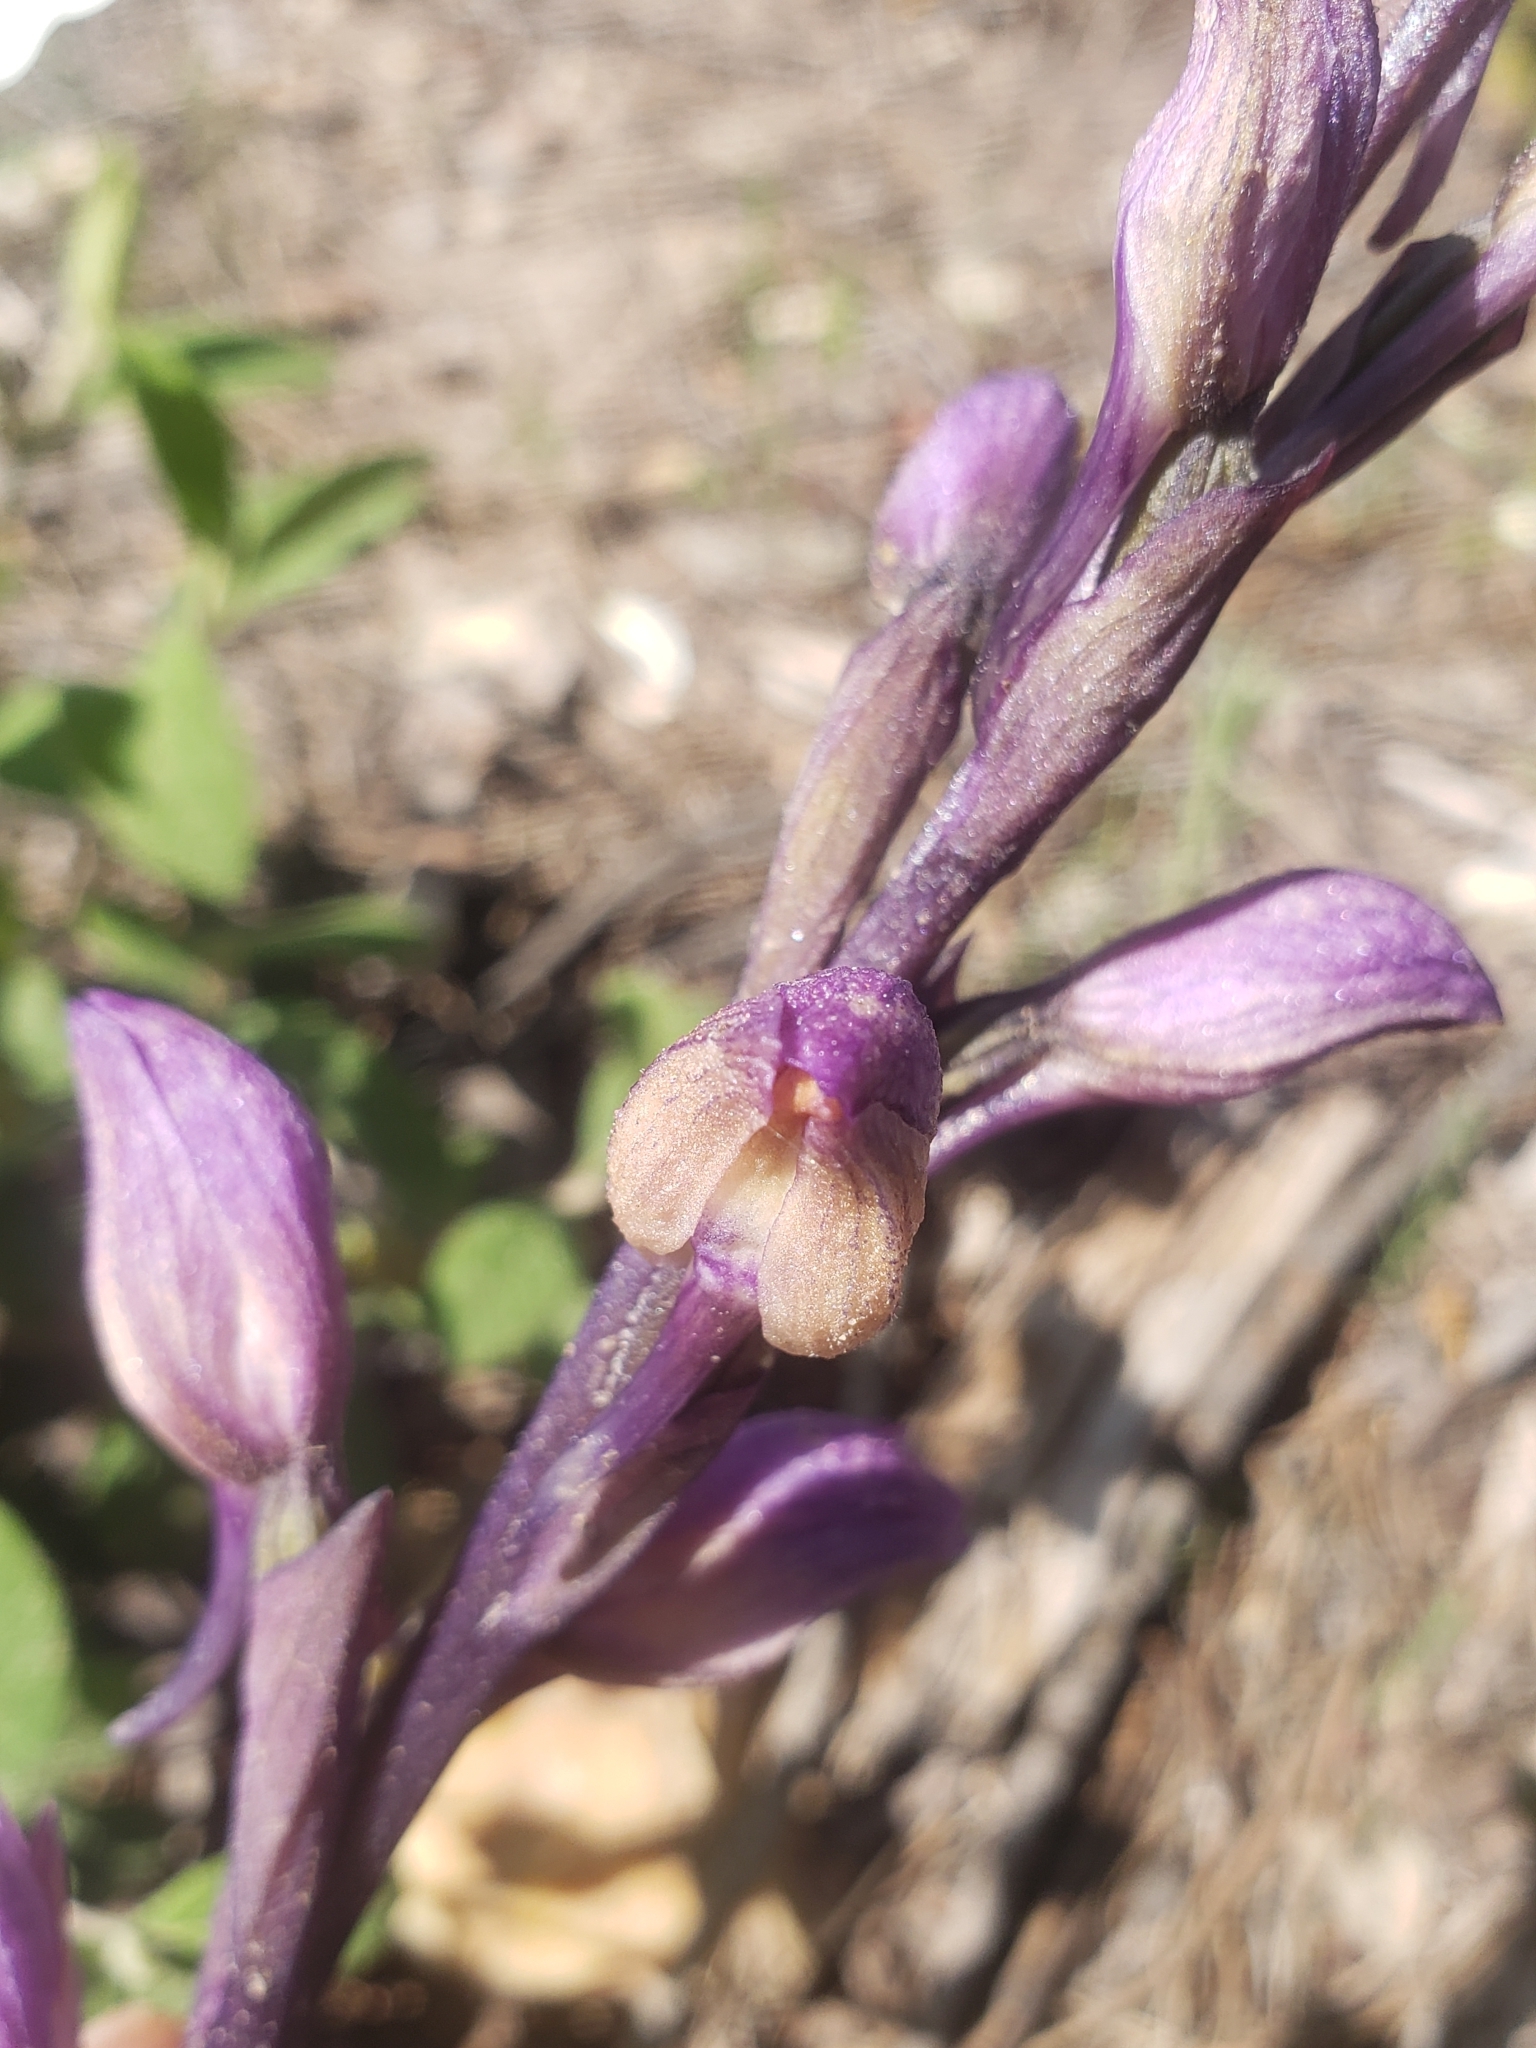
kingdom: Plantae
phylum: Tracheophyta
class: Liliopsida
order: Asparagales
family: Orchidaceae
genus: Limodorum
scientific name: Limodorum abortivum
